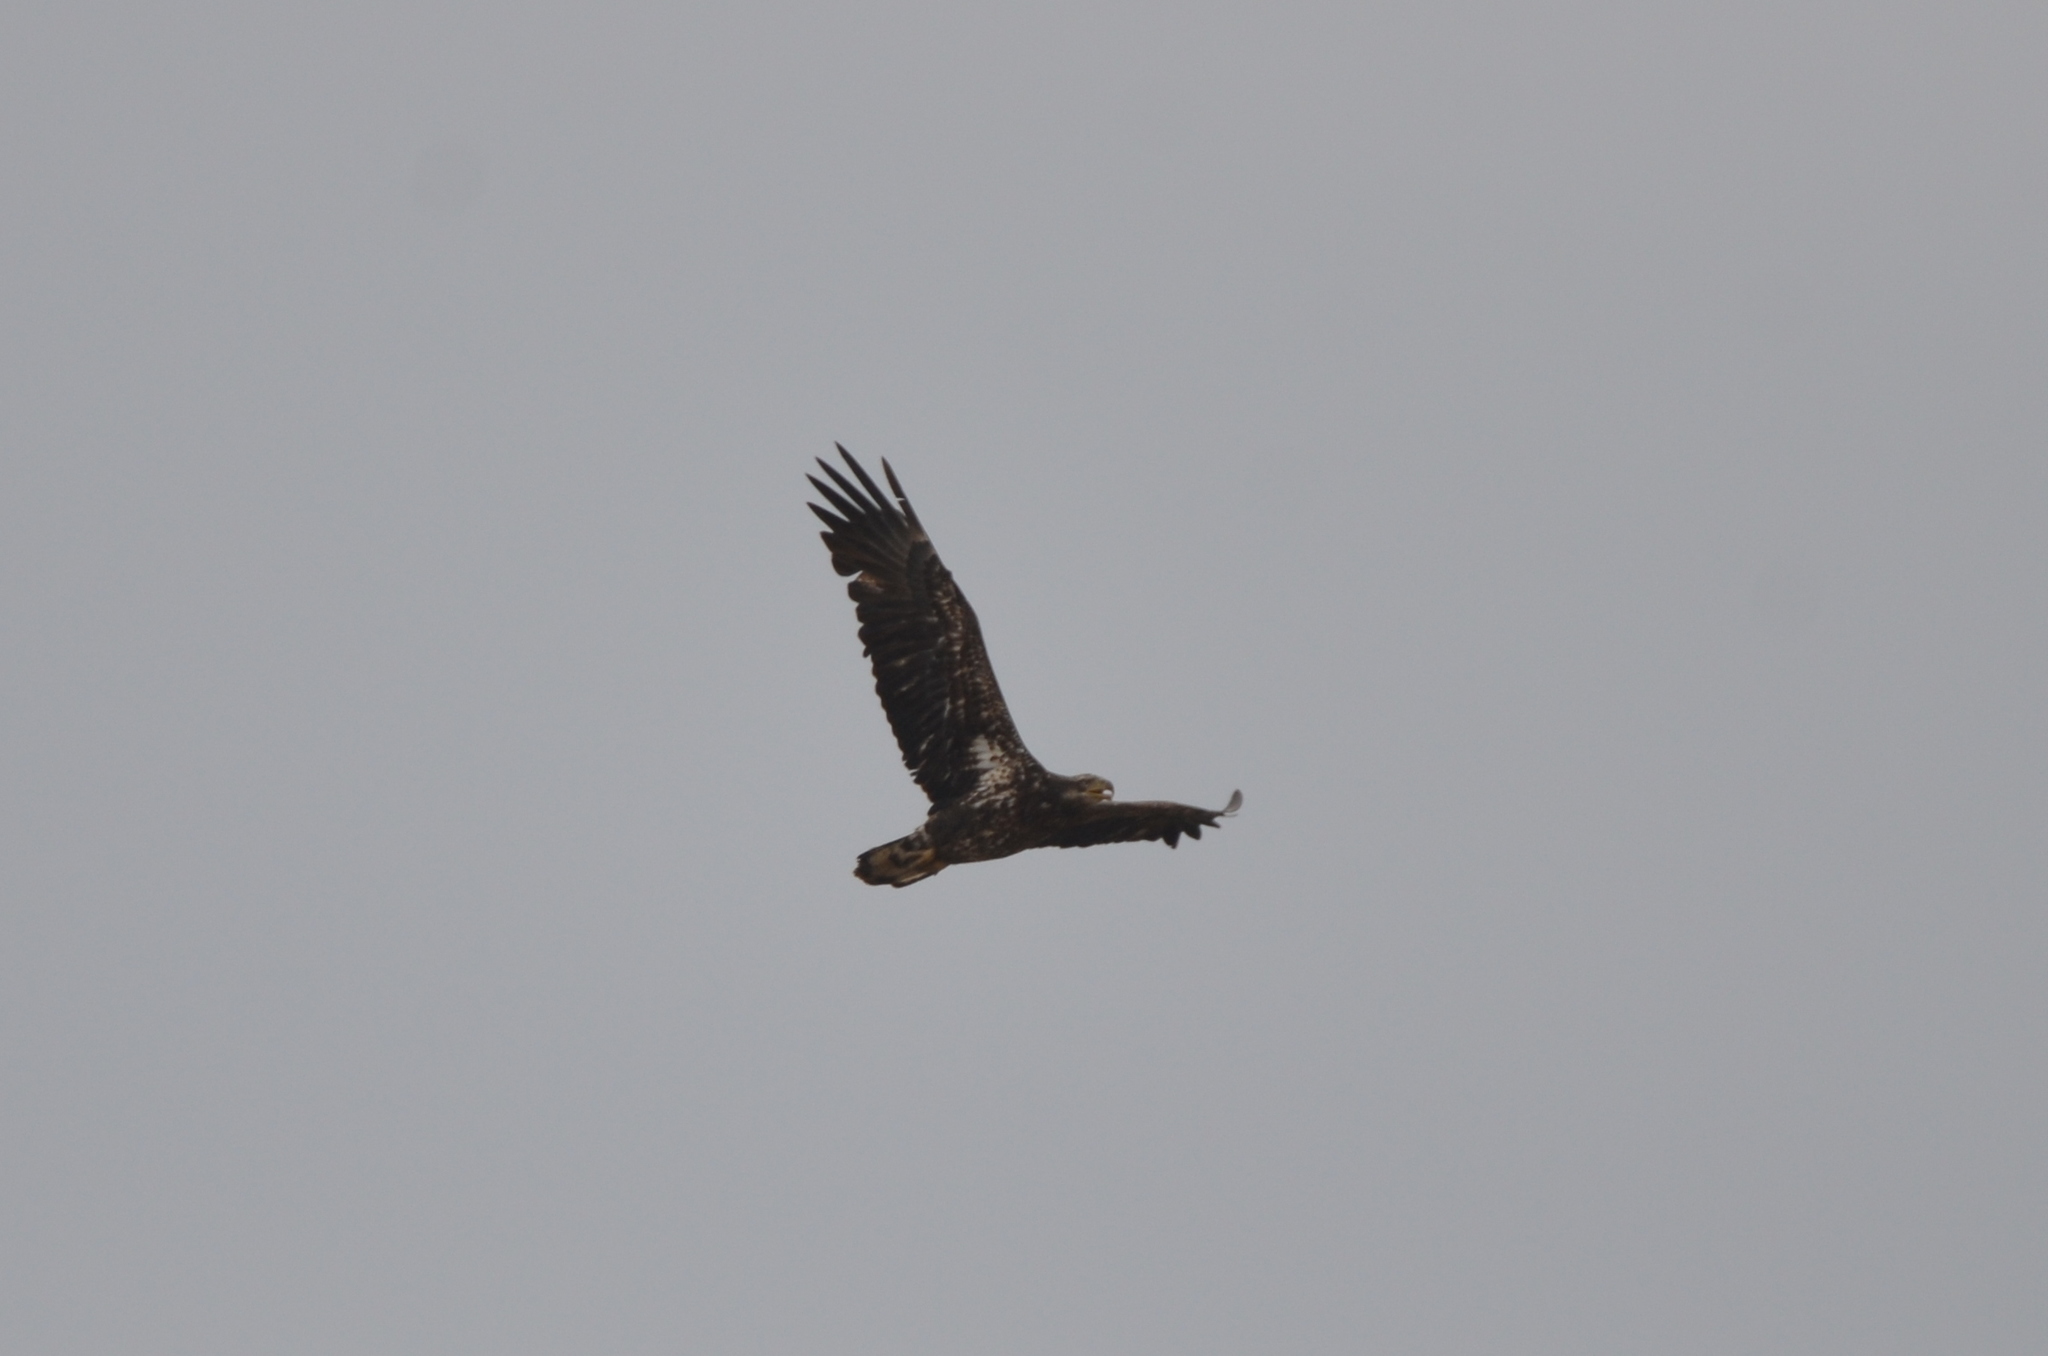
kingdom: Animalia
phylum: Chordata
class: Aves
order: Accipitriformes
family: Accipitridae
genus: Haliaeetus
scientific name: Haliaeetus leucocephalus
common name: Bald eagle
